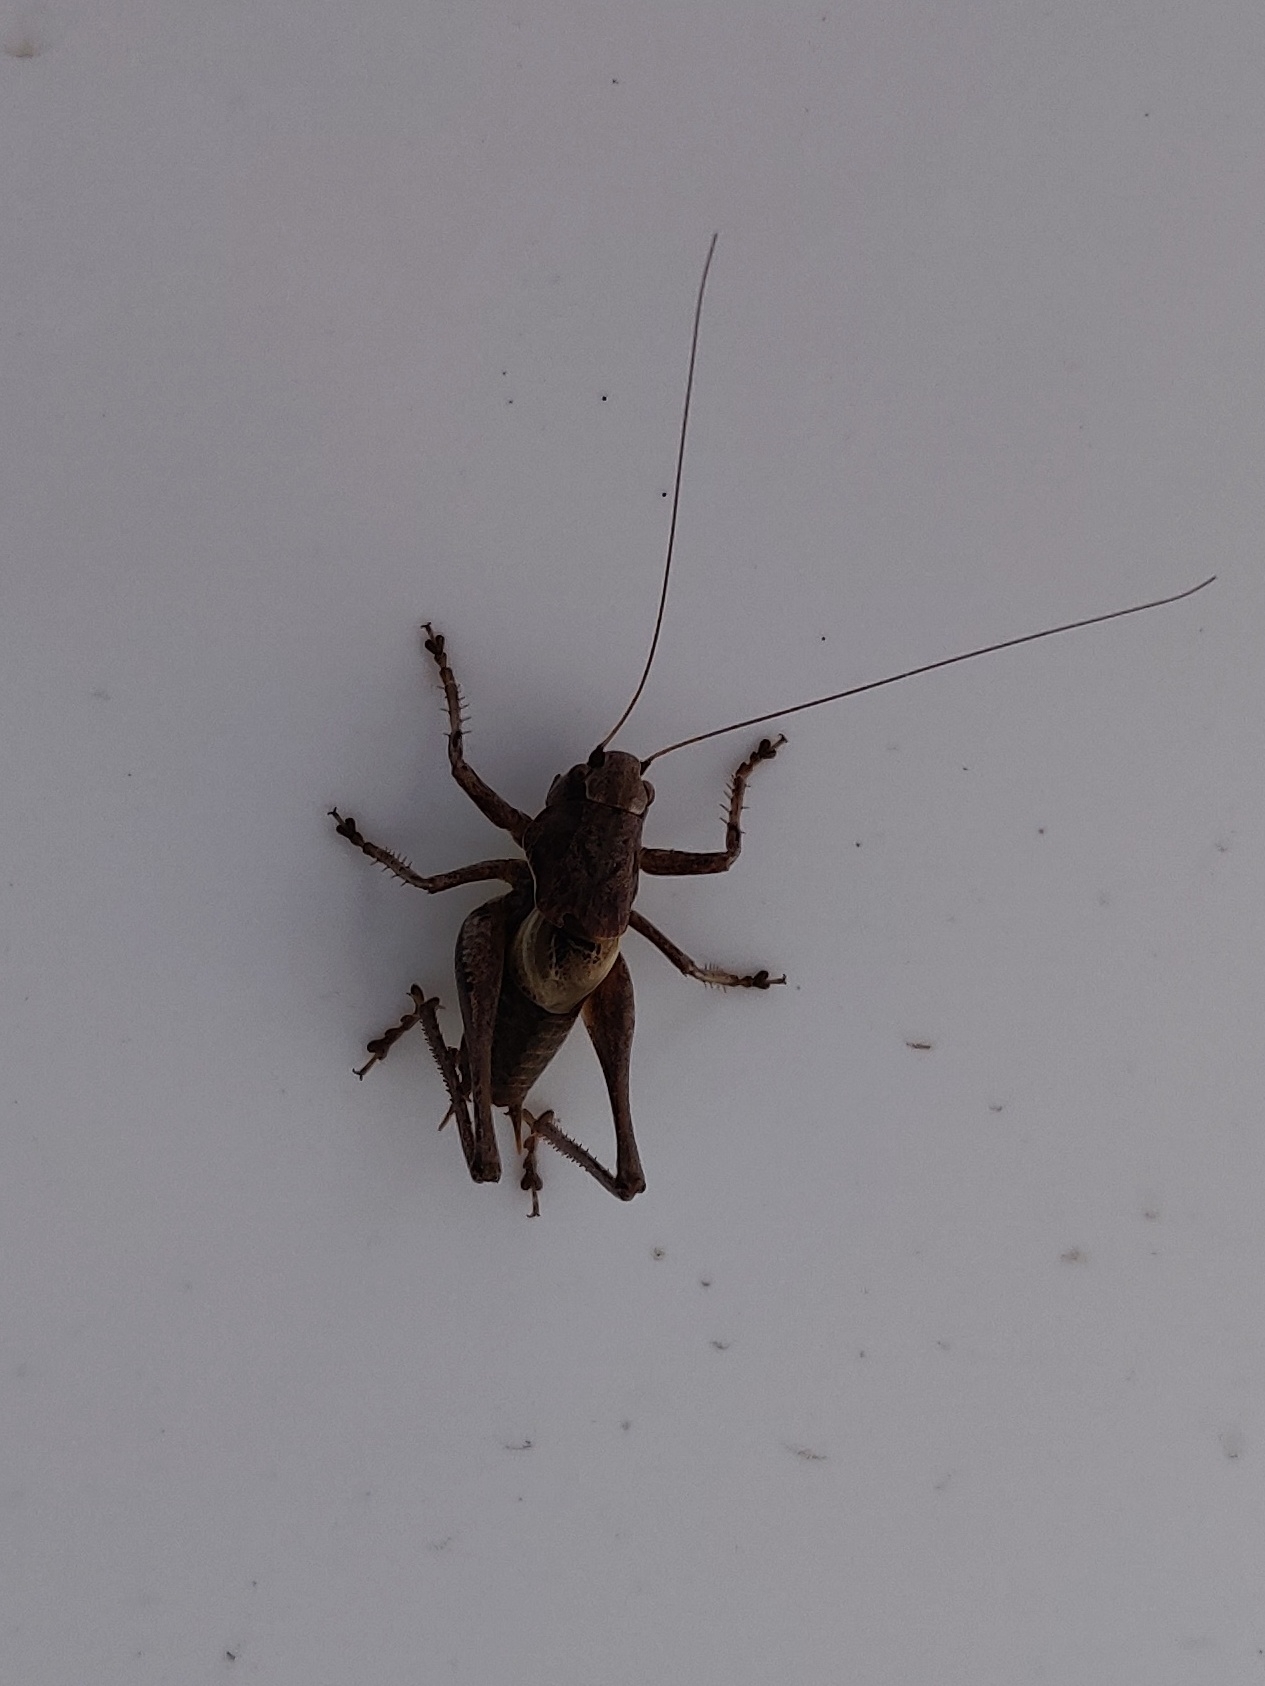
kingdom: Animalia
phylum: Arthropoda
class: Insecta
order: Orthoptera
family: Tettigoniidae
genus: Pholidoptera
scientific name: Pholidoptera griseoaptera
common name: Dark bush-cricket
